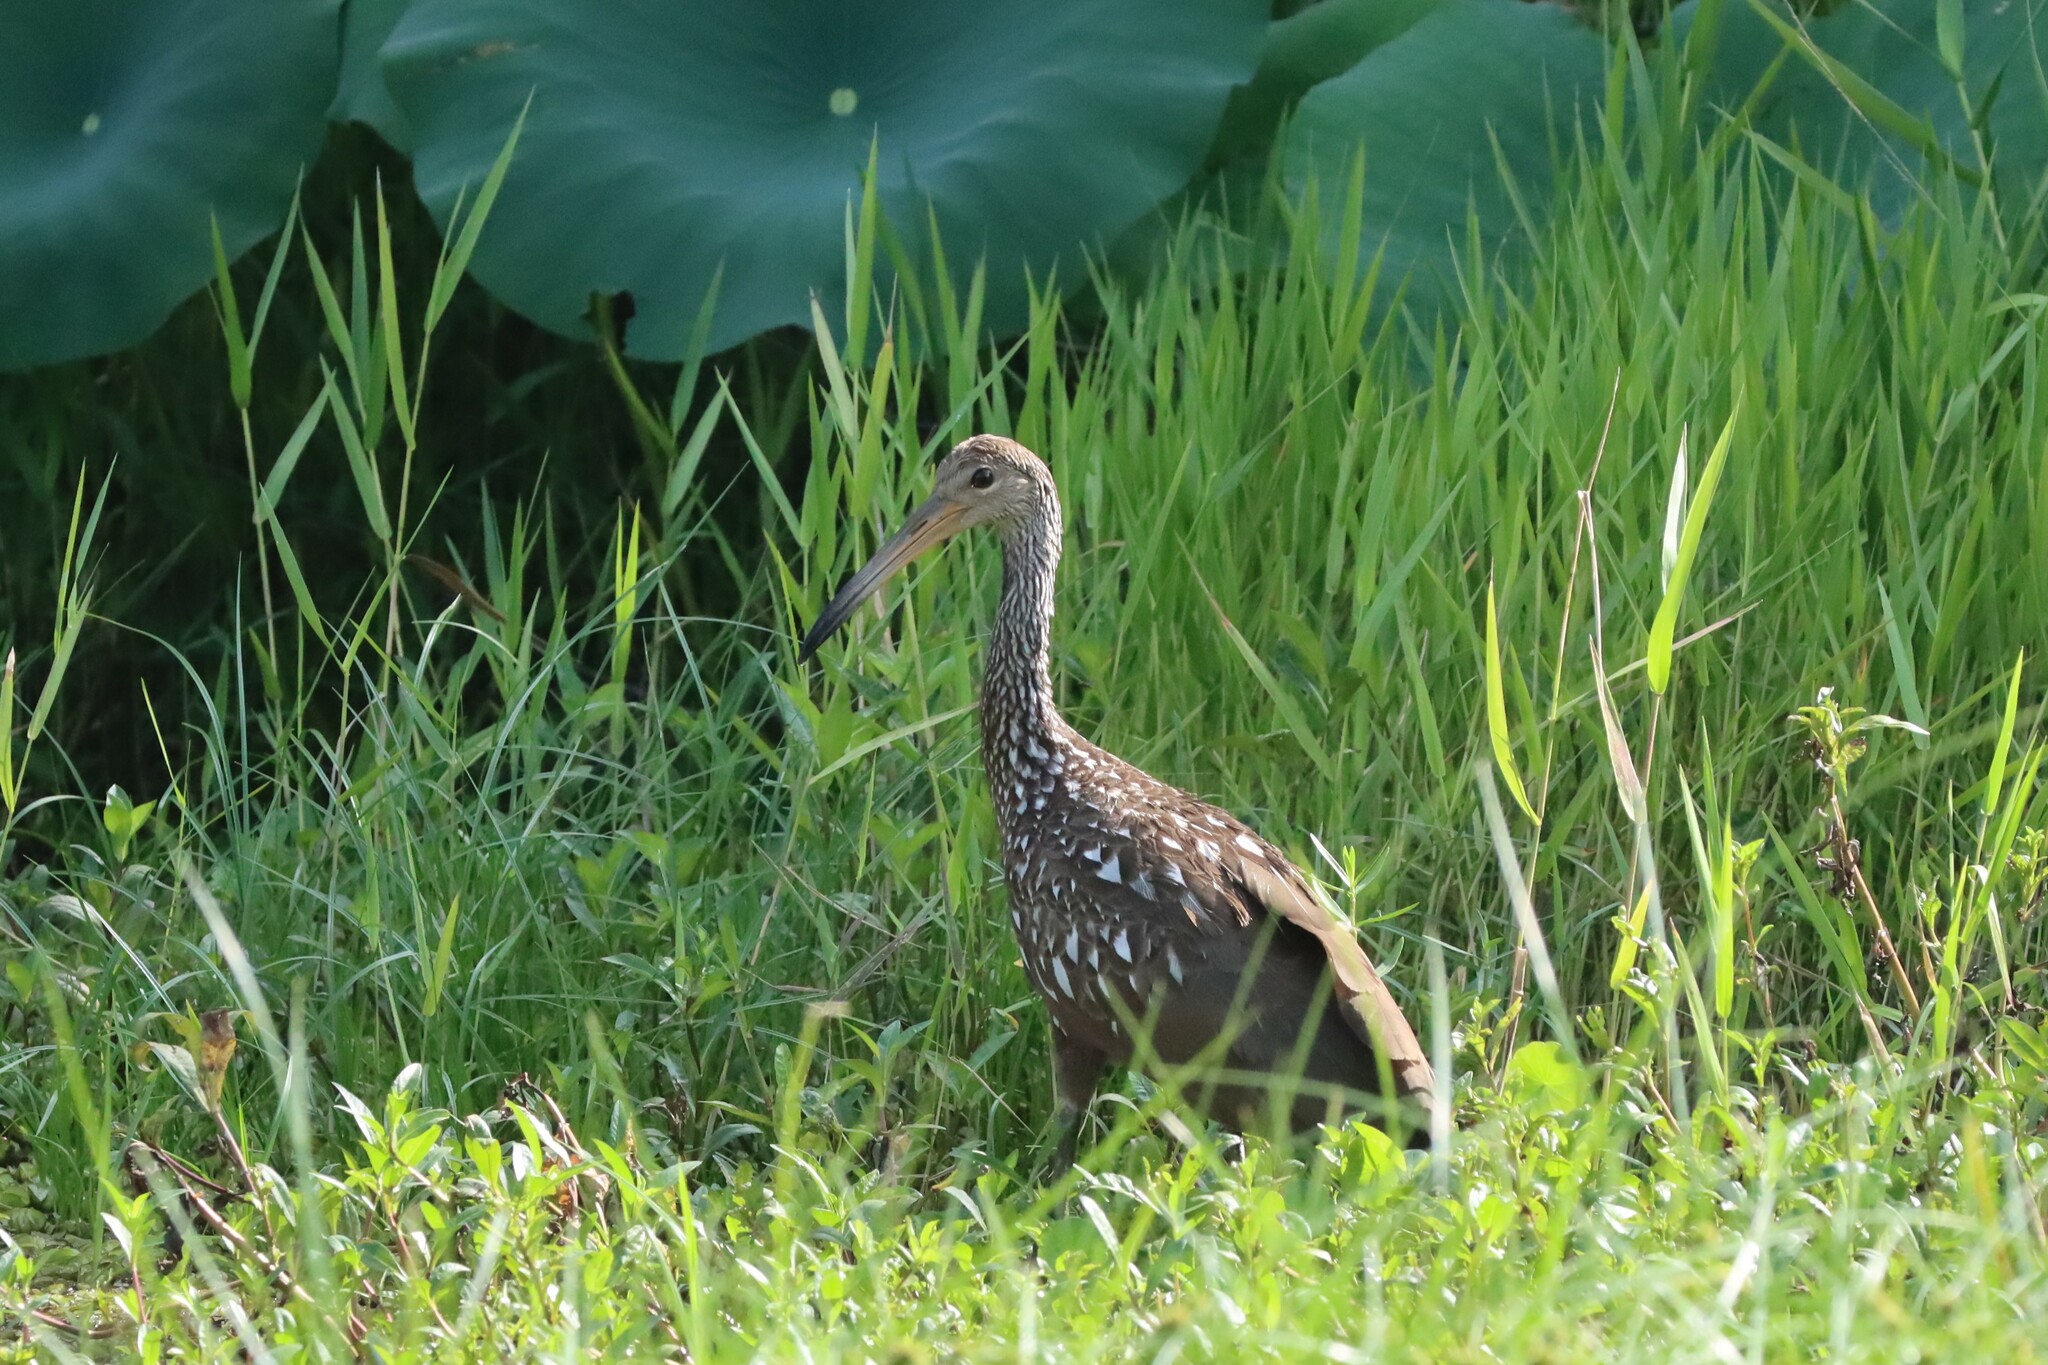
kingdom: Animalia
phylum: Chordata
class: Aves
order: Gruiformes
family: Aramidae
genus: Aramus
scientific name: Aramus guarauna
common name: Limpkin
